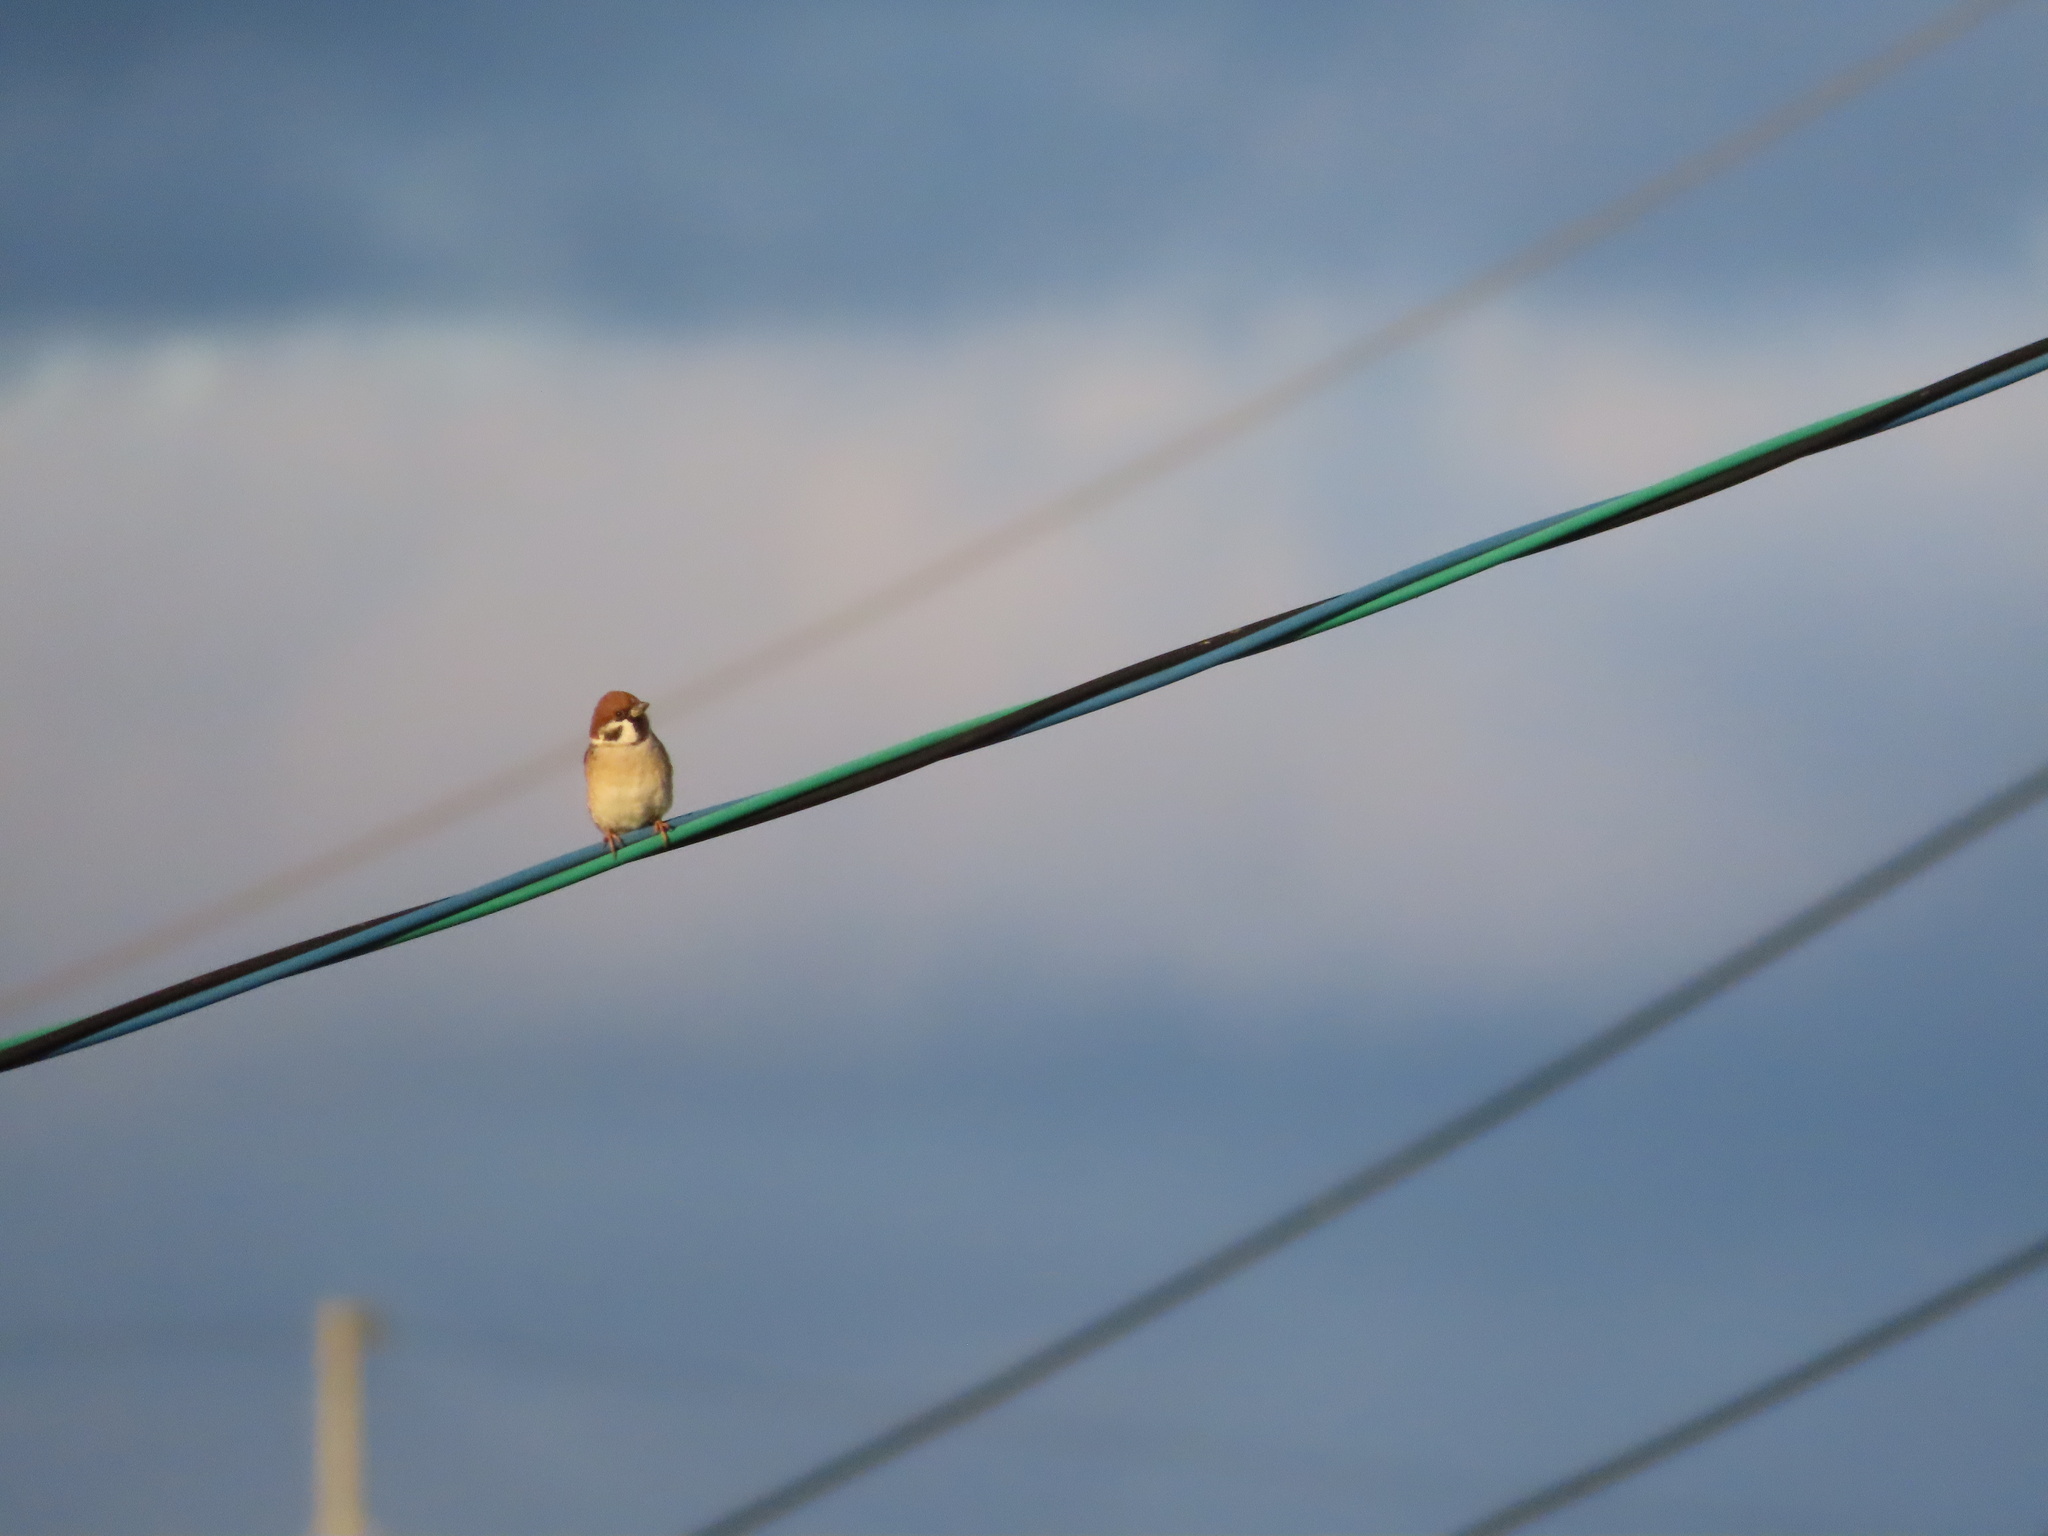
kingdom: Animalia
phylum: Chordata
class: Aves
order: Passeriformes
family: Passeridae
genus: Passer
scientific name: Passer montanus
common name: Eurasian tree sparrow
